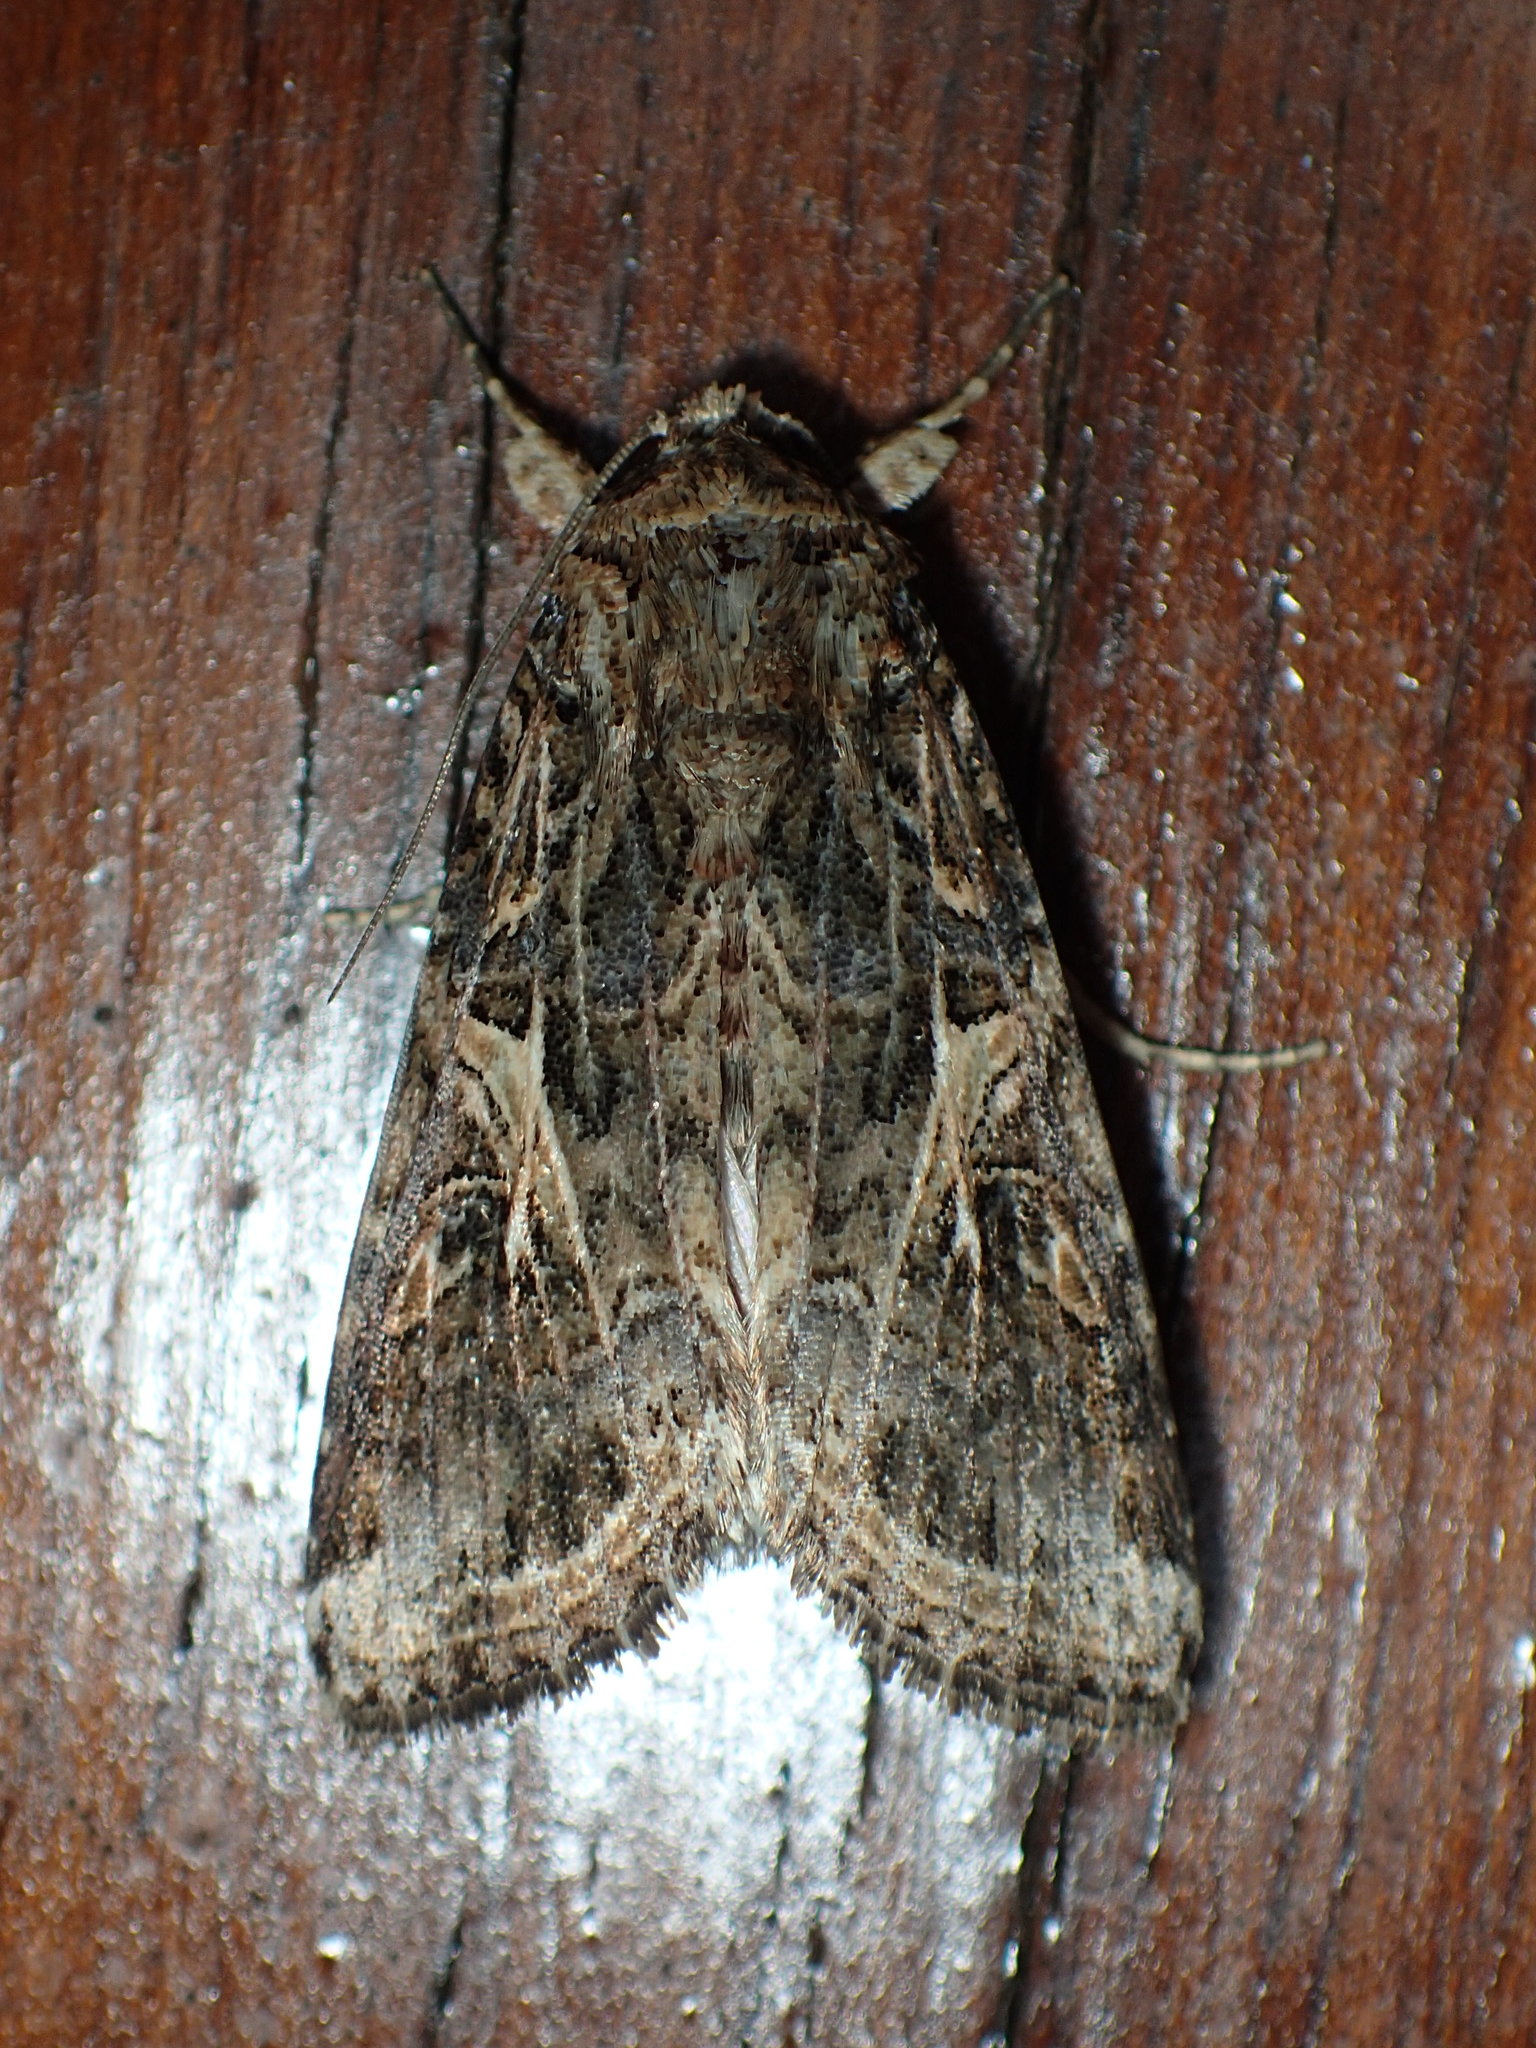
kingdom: Animalia
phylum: Arthropoda
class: Insecta
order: Lepidoptera
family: Noctuidae
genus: Spodoptera
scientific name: Spodoptera ornithogalli
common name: Yellow-striped armyworm
